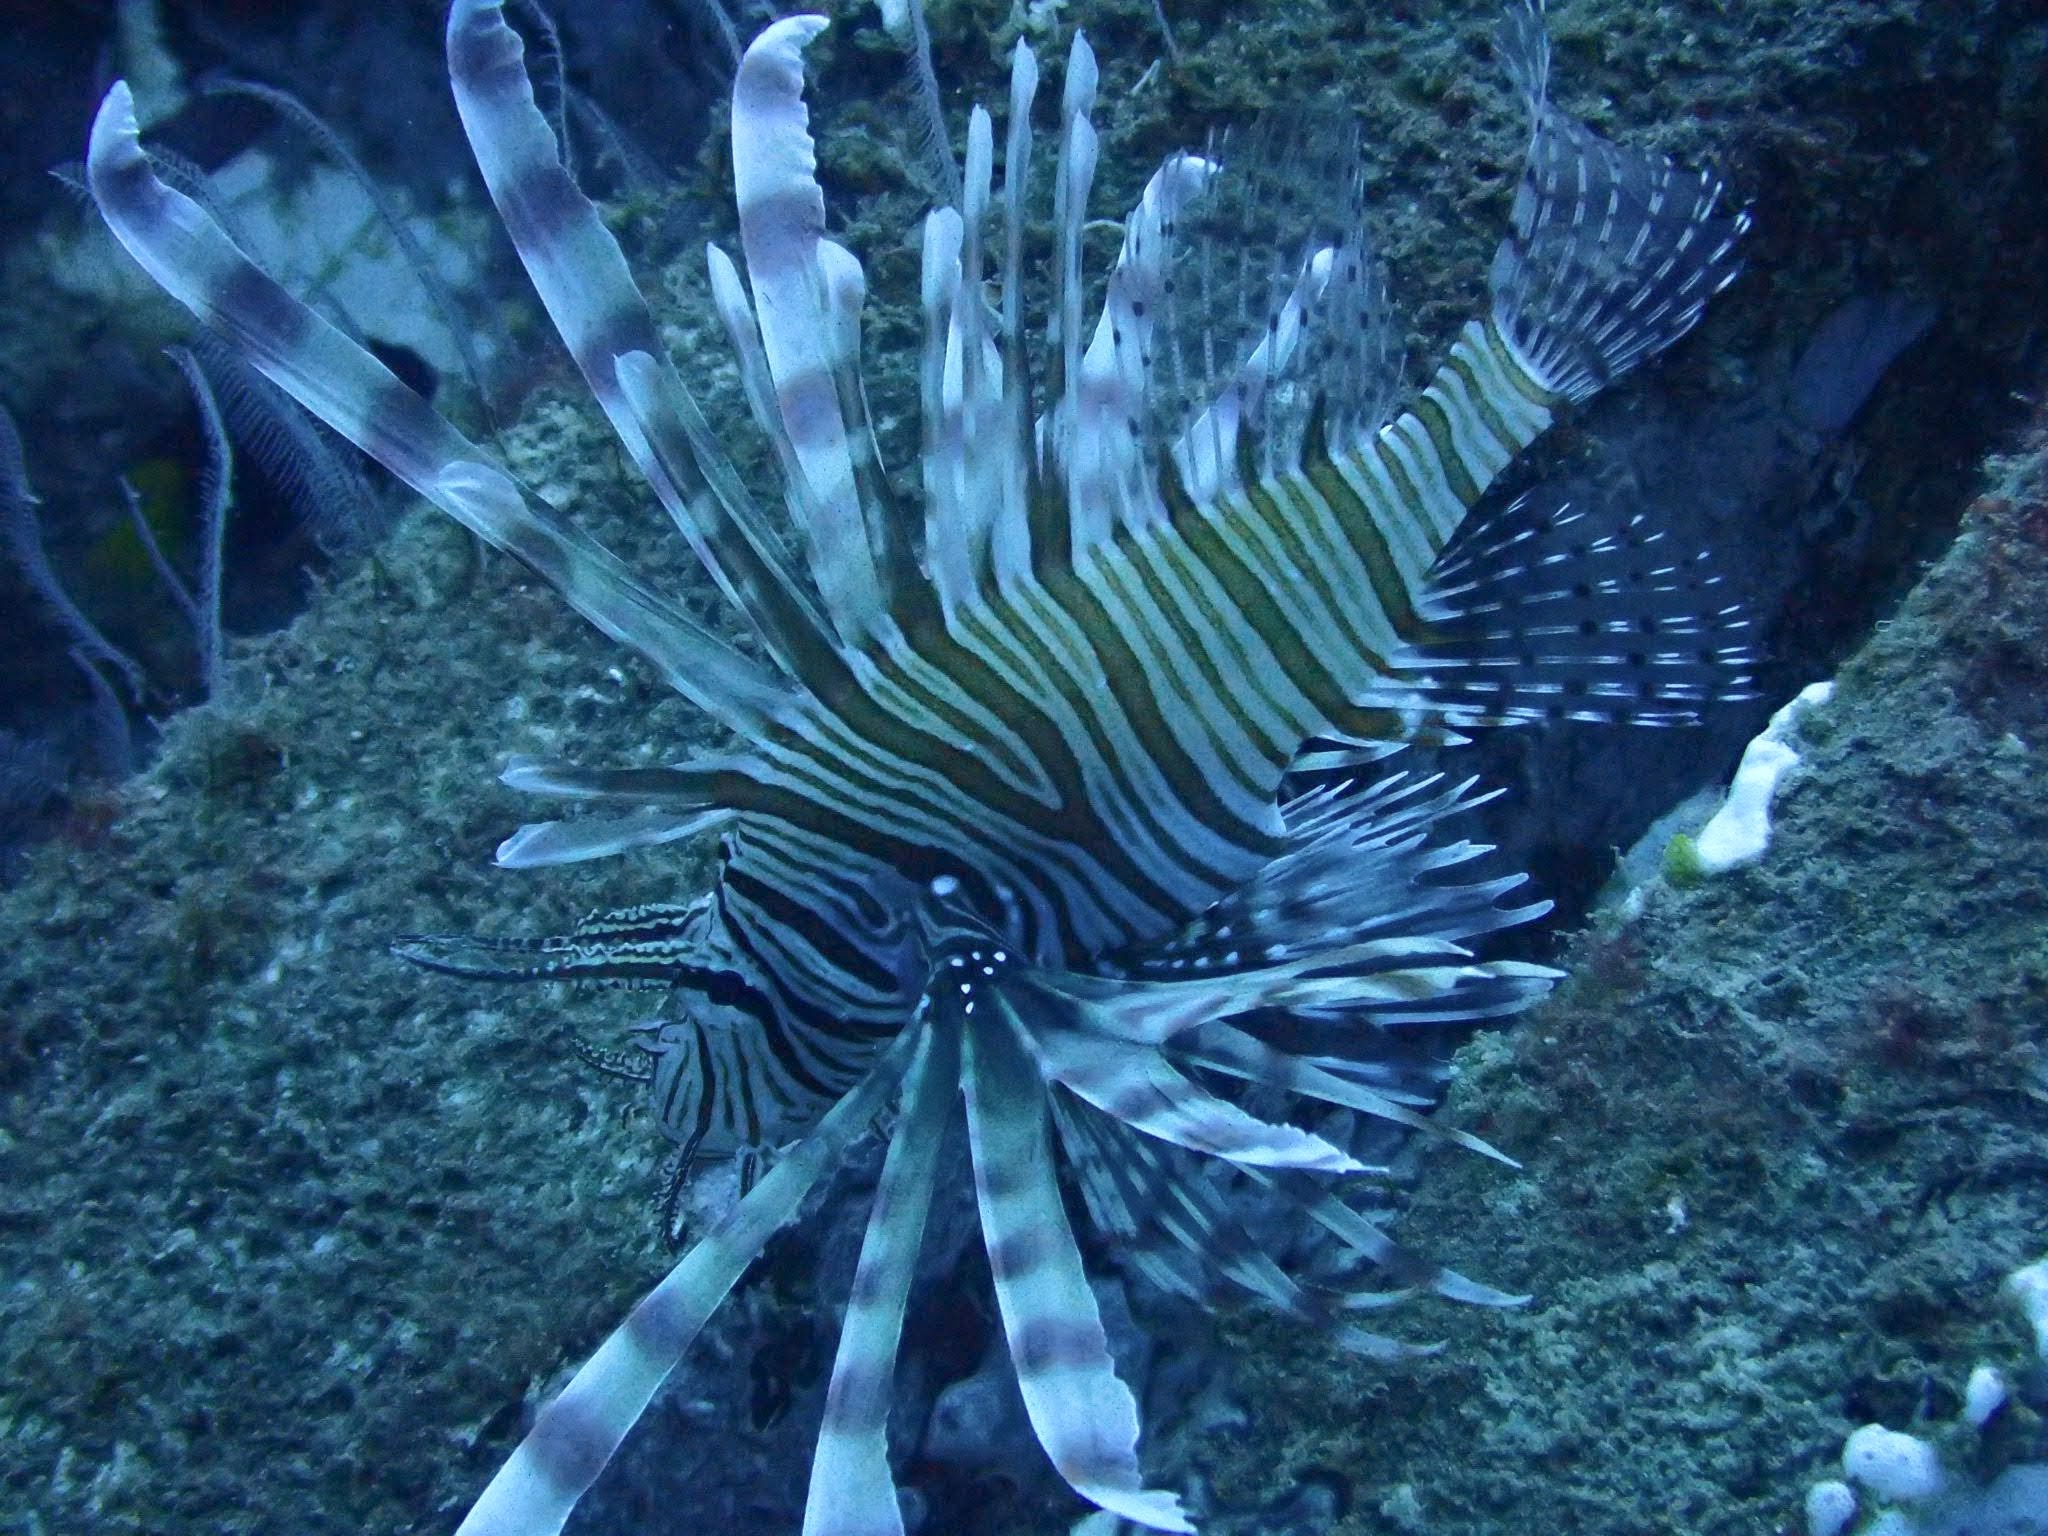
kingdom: Animalia
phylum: Chordata
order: Scorpaeniformes
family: Scorpaenidae
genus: Pterois
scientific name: Pterois volitans
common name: Lionfish
